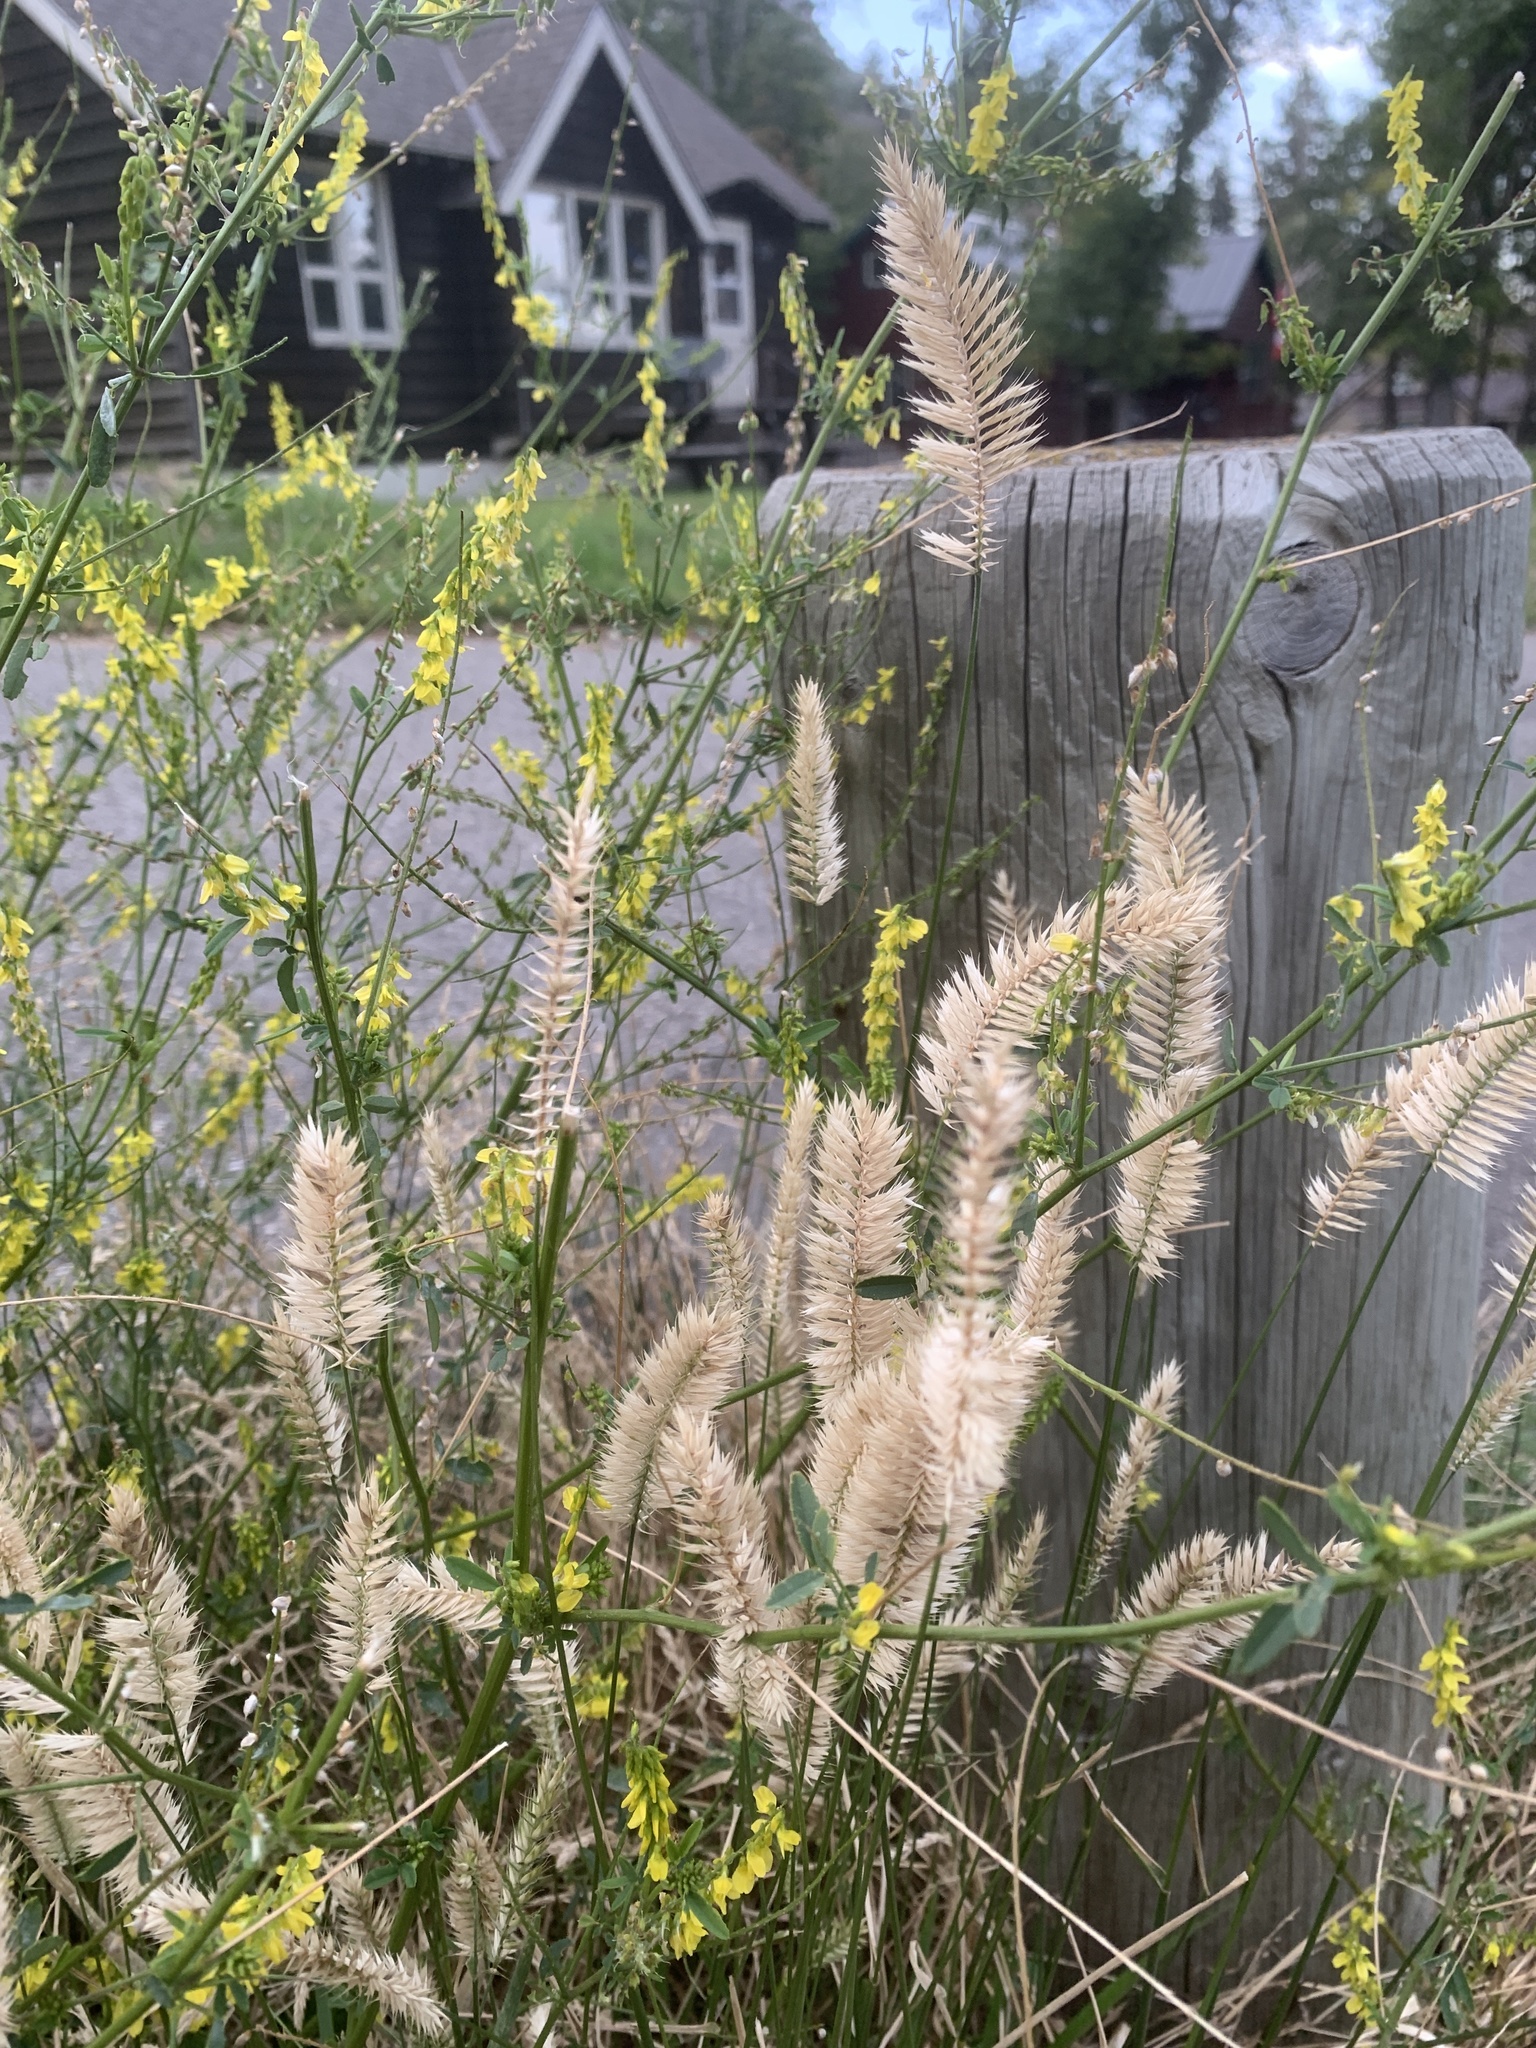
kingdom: Plantae
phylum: Tracheophyta
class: Liliopsida
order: Poales
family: Poaceae
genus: Agropyron
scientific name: Agropyron cristatum
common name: Crested wheatgrass
